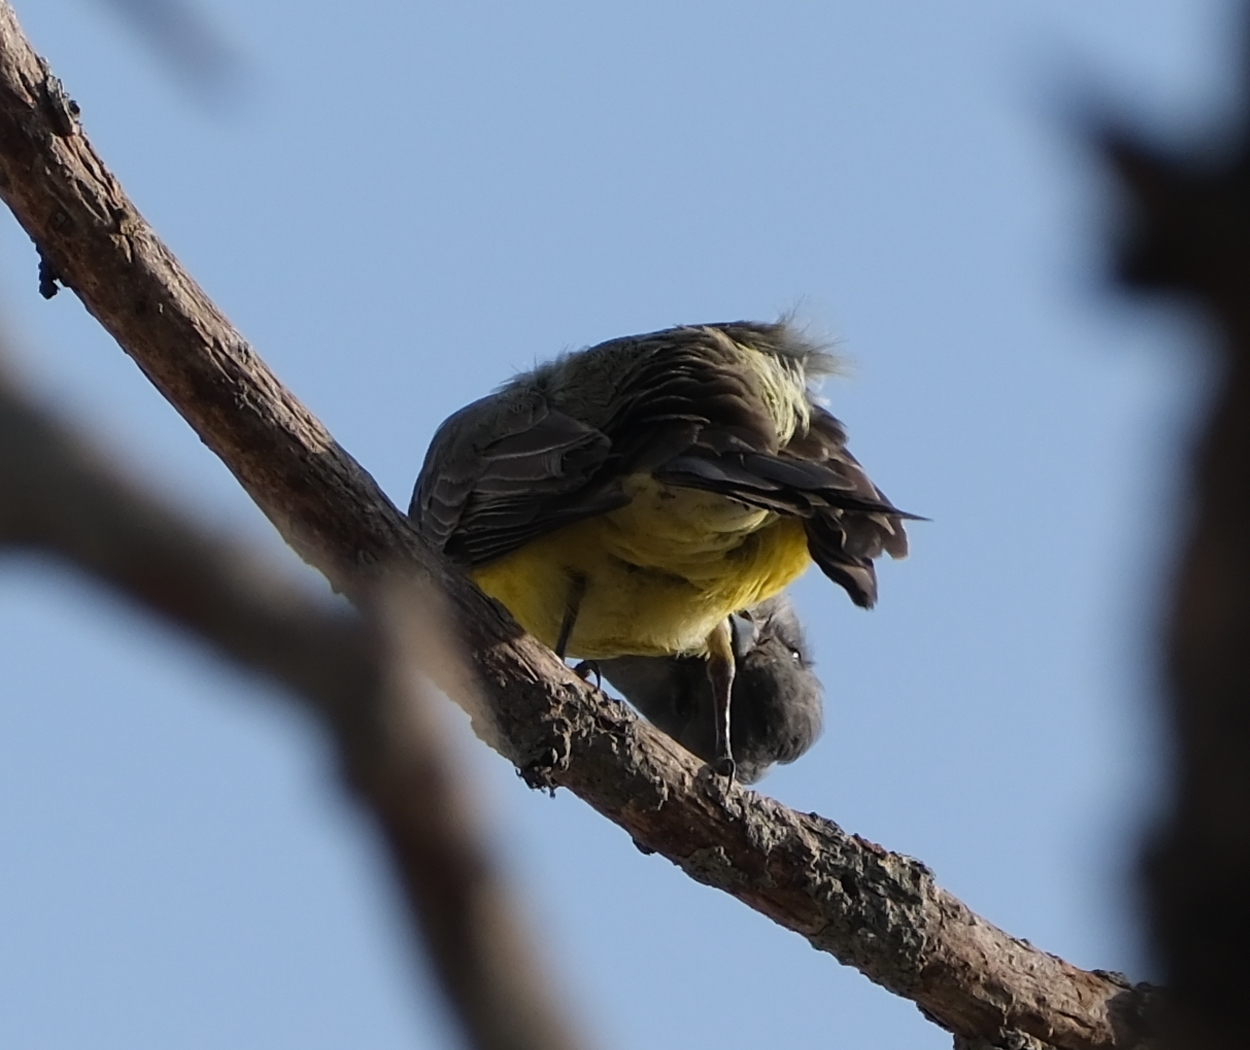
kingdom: Animalia
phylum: Chordata
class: Aves
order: Passeriformes
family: Tyrannidae
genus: Tyrannus
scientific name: Tyrannus melancholicus
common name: Tropical kingbird
